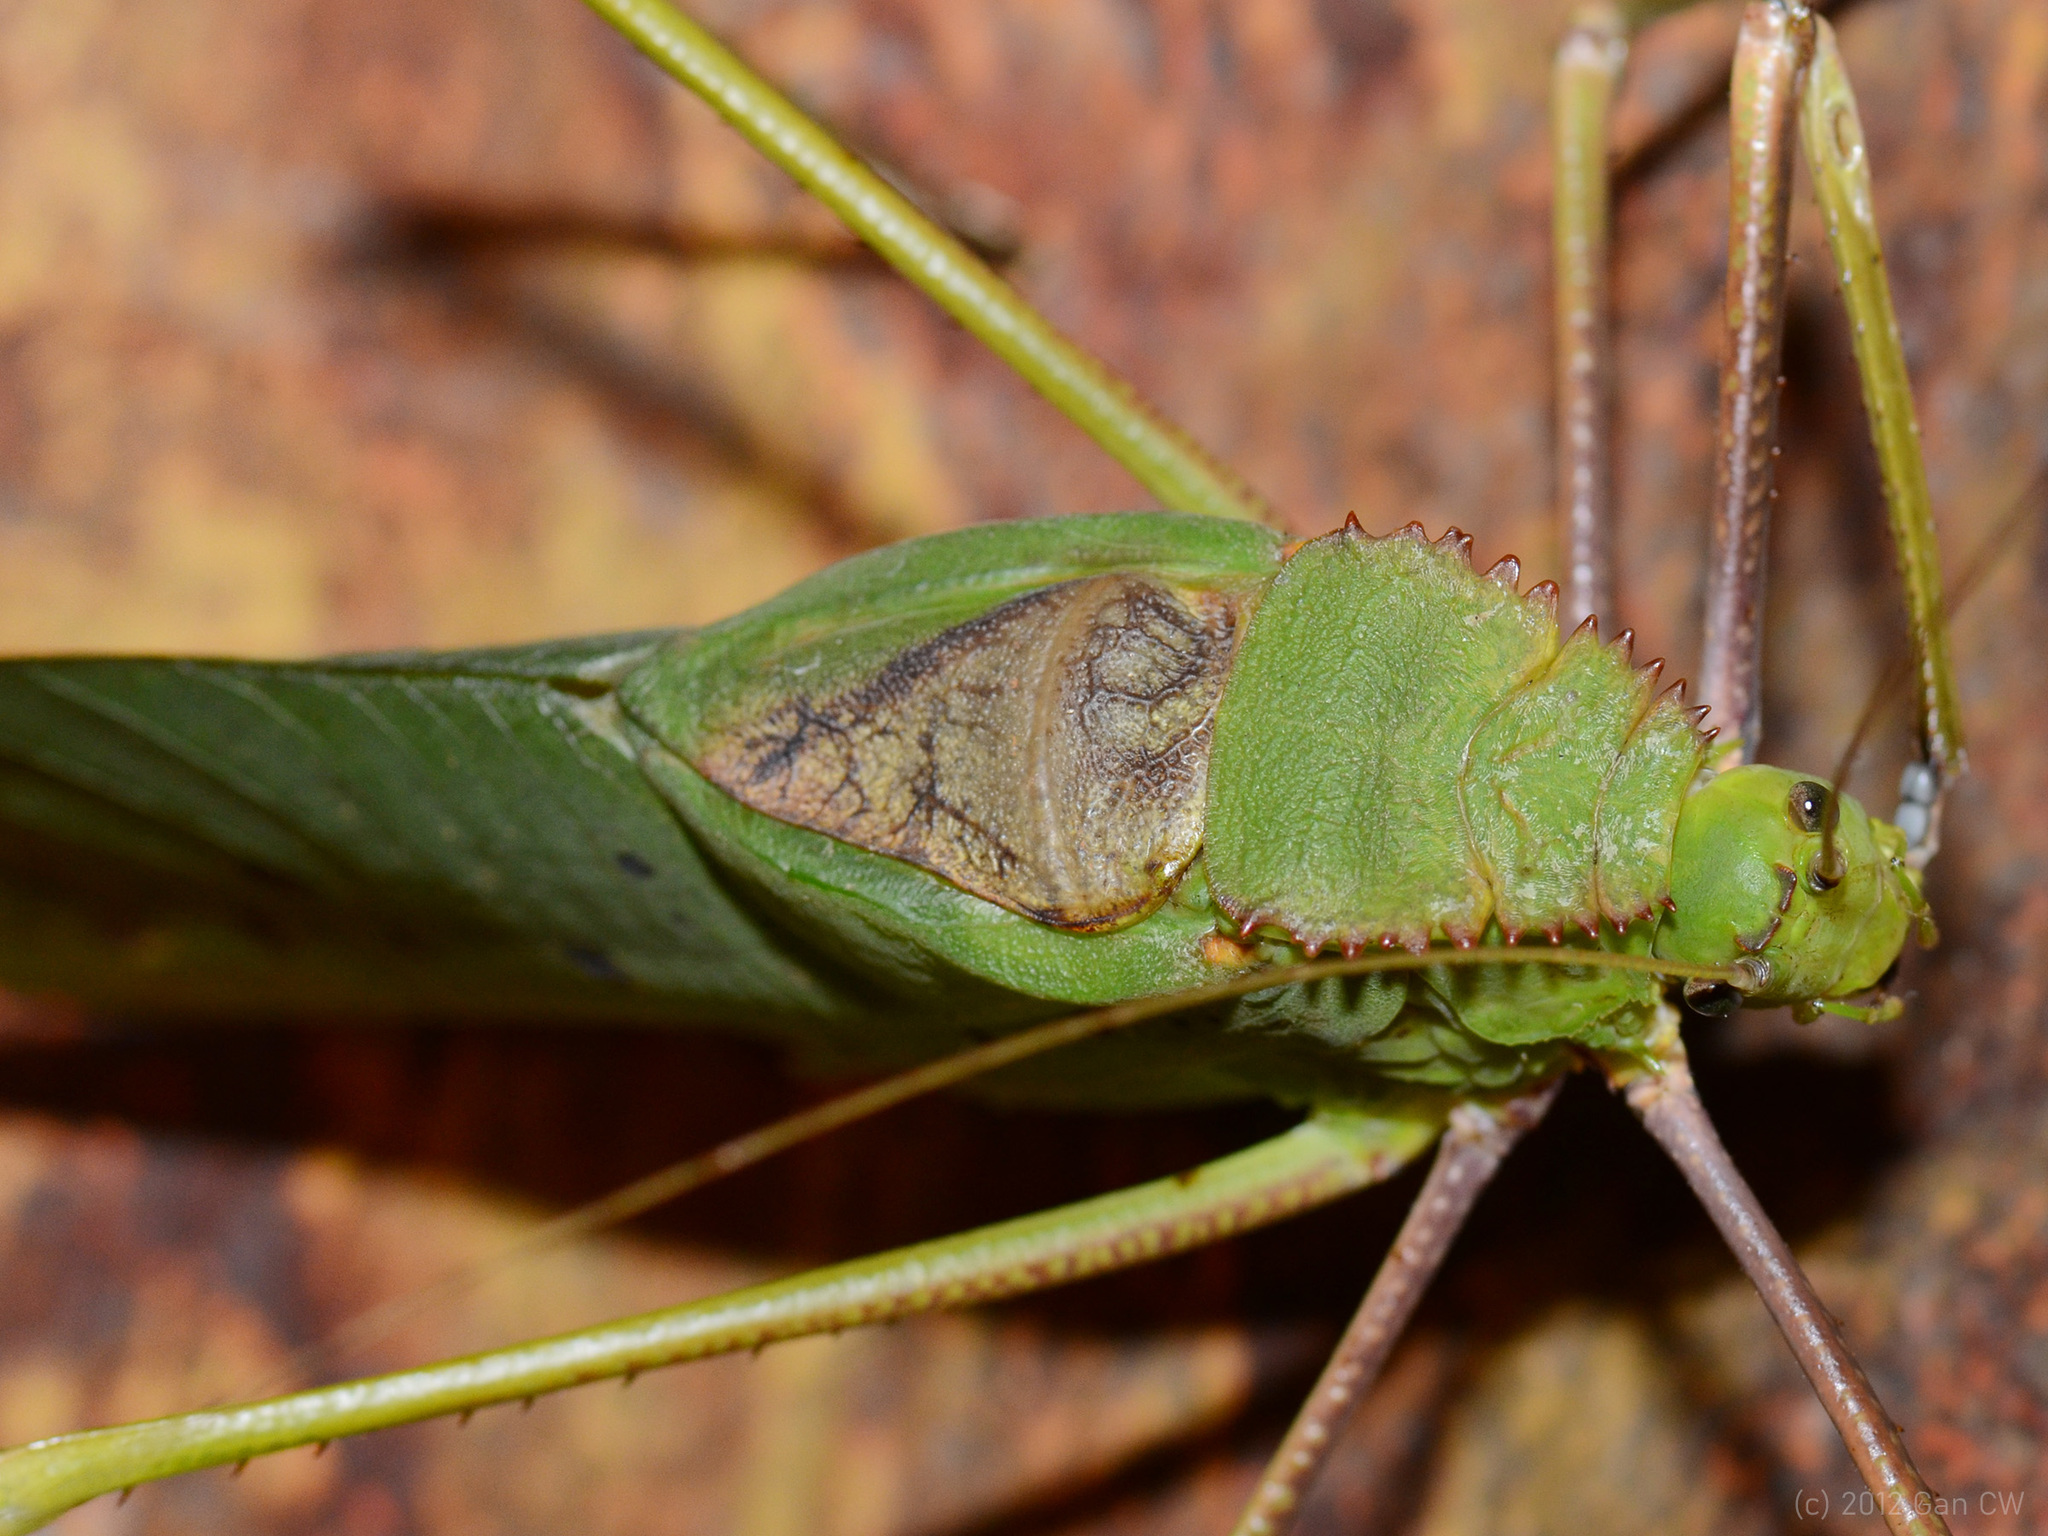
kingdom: Animalia
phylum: Arthropoda
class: Insecta
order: Orthoptera
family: Tettigoniidae
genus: Arachnacris
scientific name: Arachnacris corporalis
